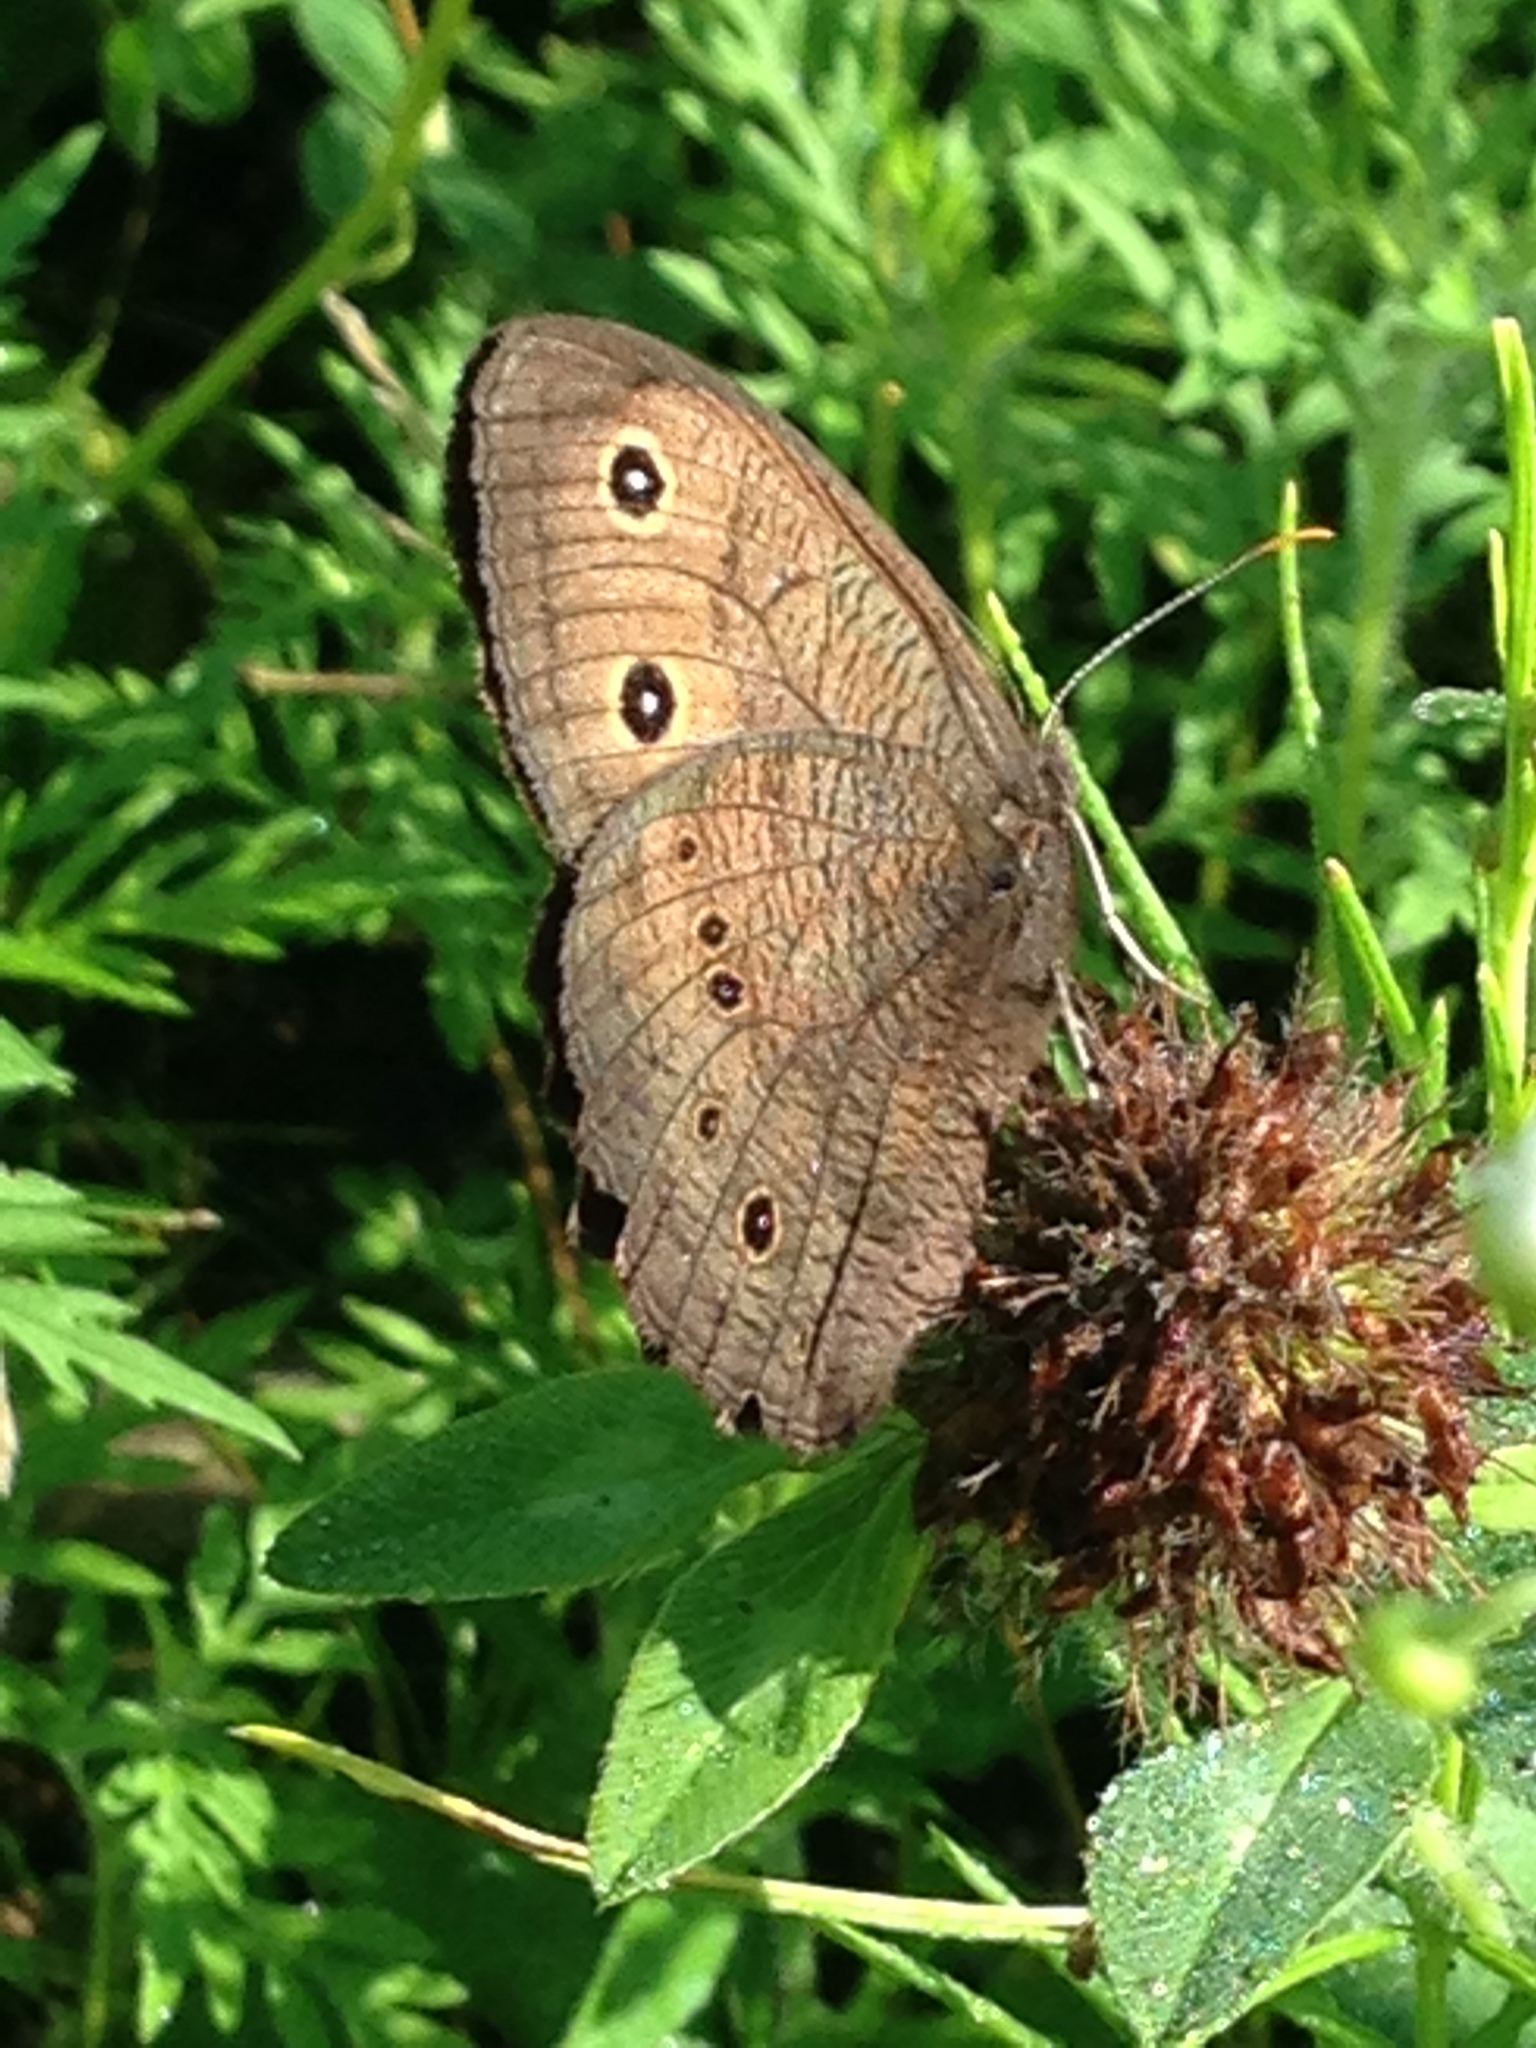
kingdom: Animalia
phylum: Arthropoda
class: Insecta
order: Lepidoptera
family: Nymphalidae
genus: Cercyonis
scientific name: Cercyonis pegala
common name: Common wood-nymph
